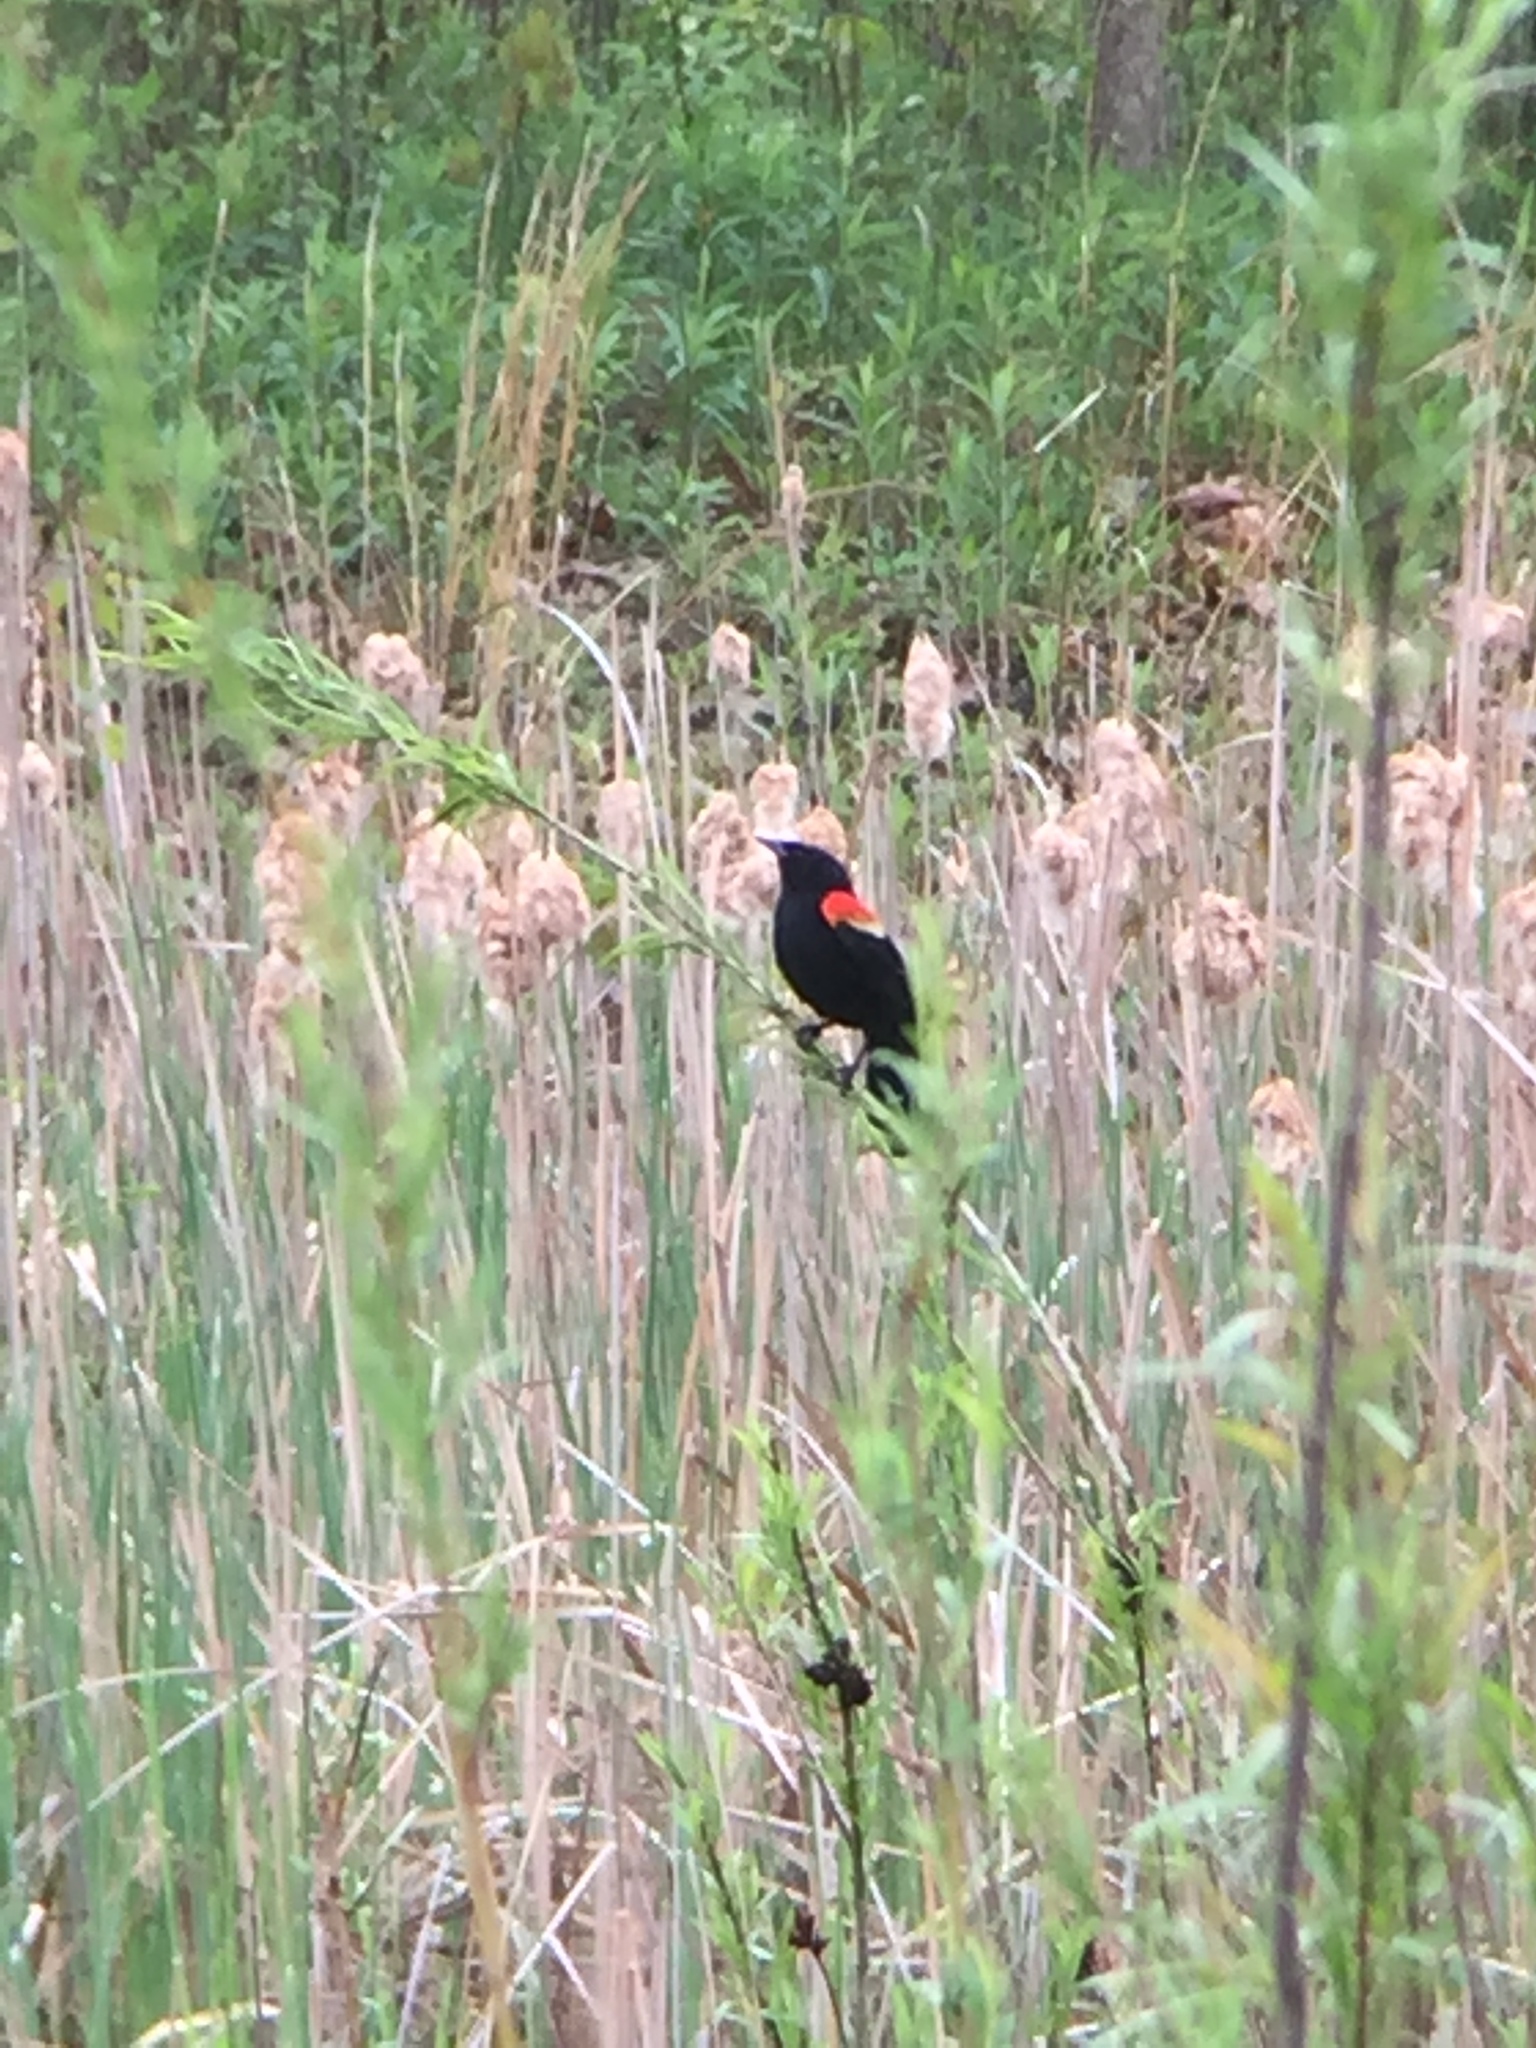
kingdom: Animalia
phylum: Chordata
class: Aves
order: Passeriformes
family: Icteridae
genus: Agelaius
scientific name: Agelaius phoeniceus
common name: Red-winged blackbird
